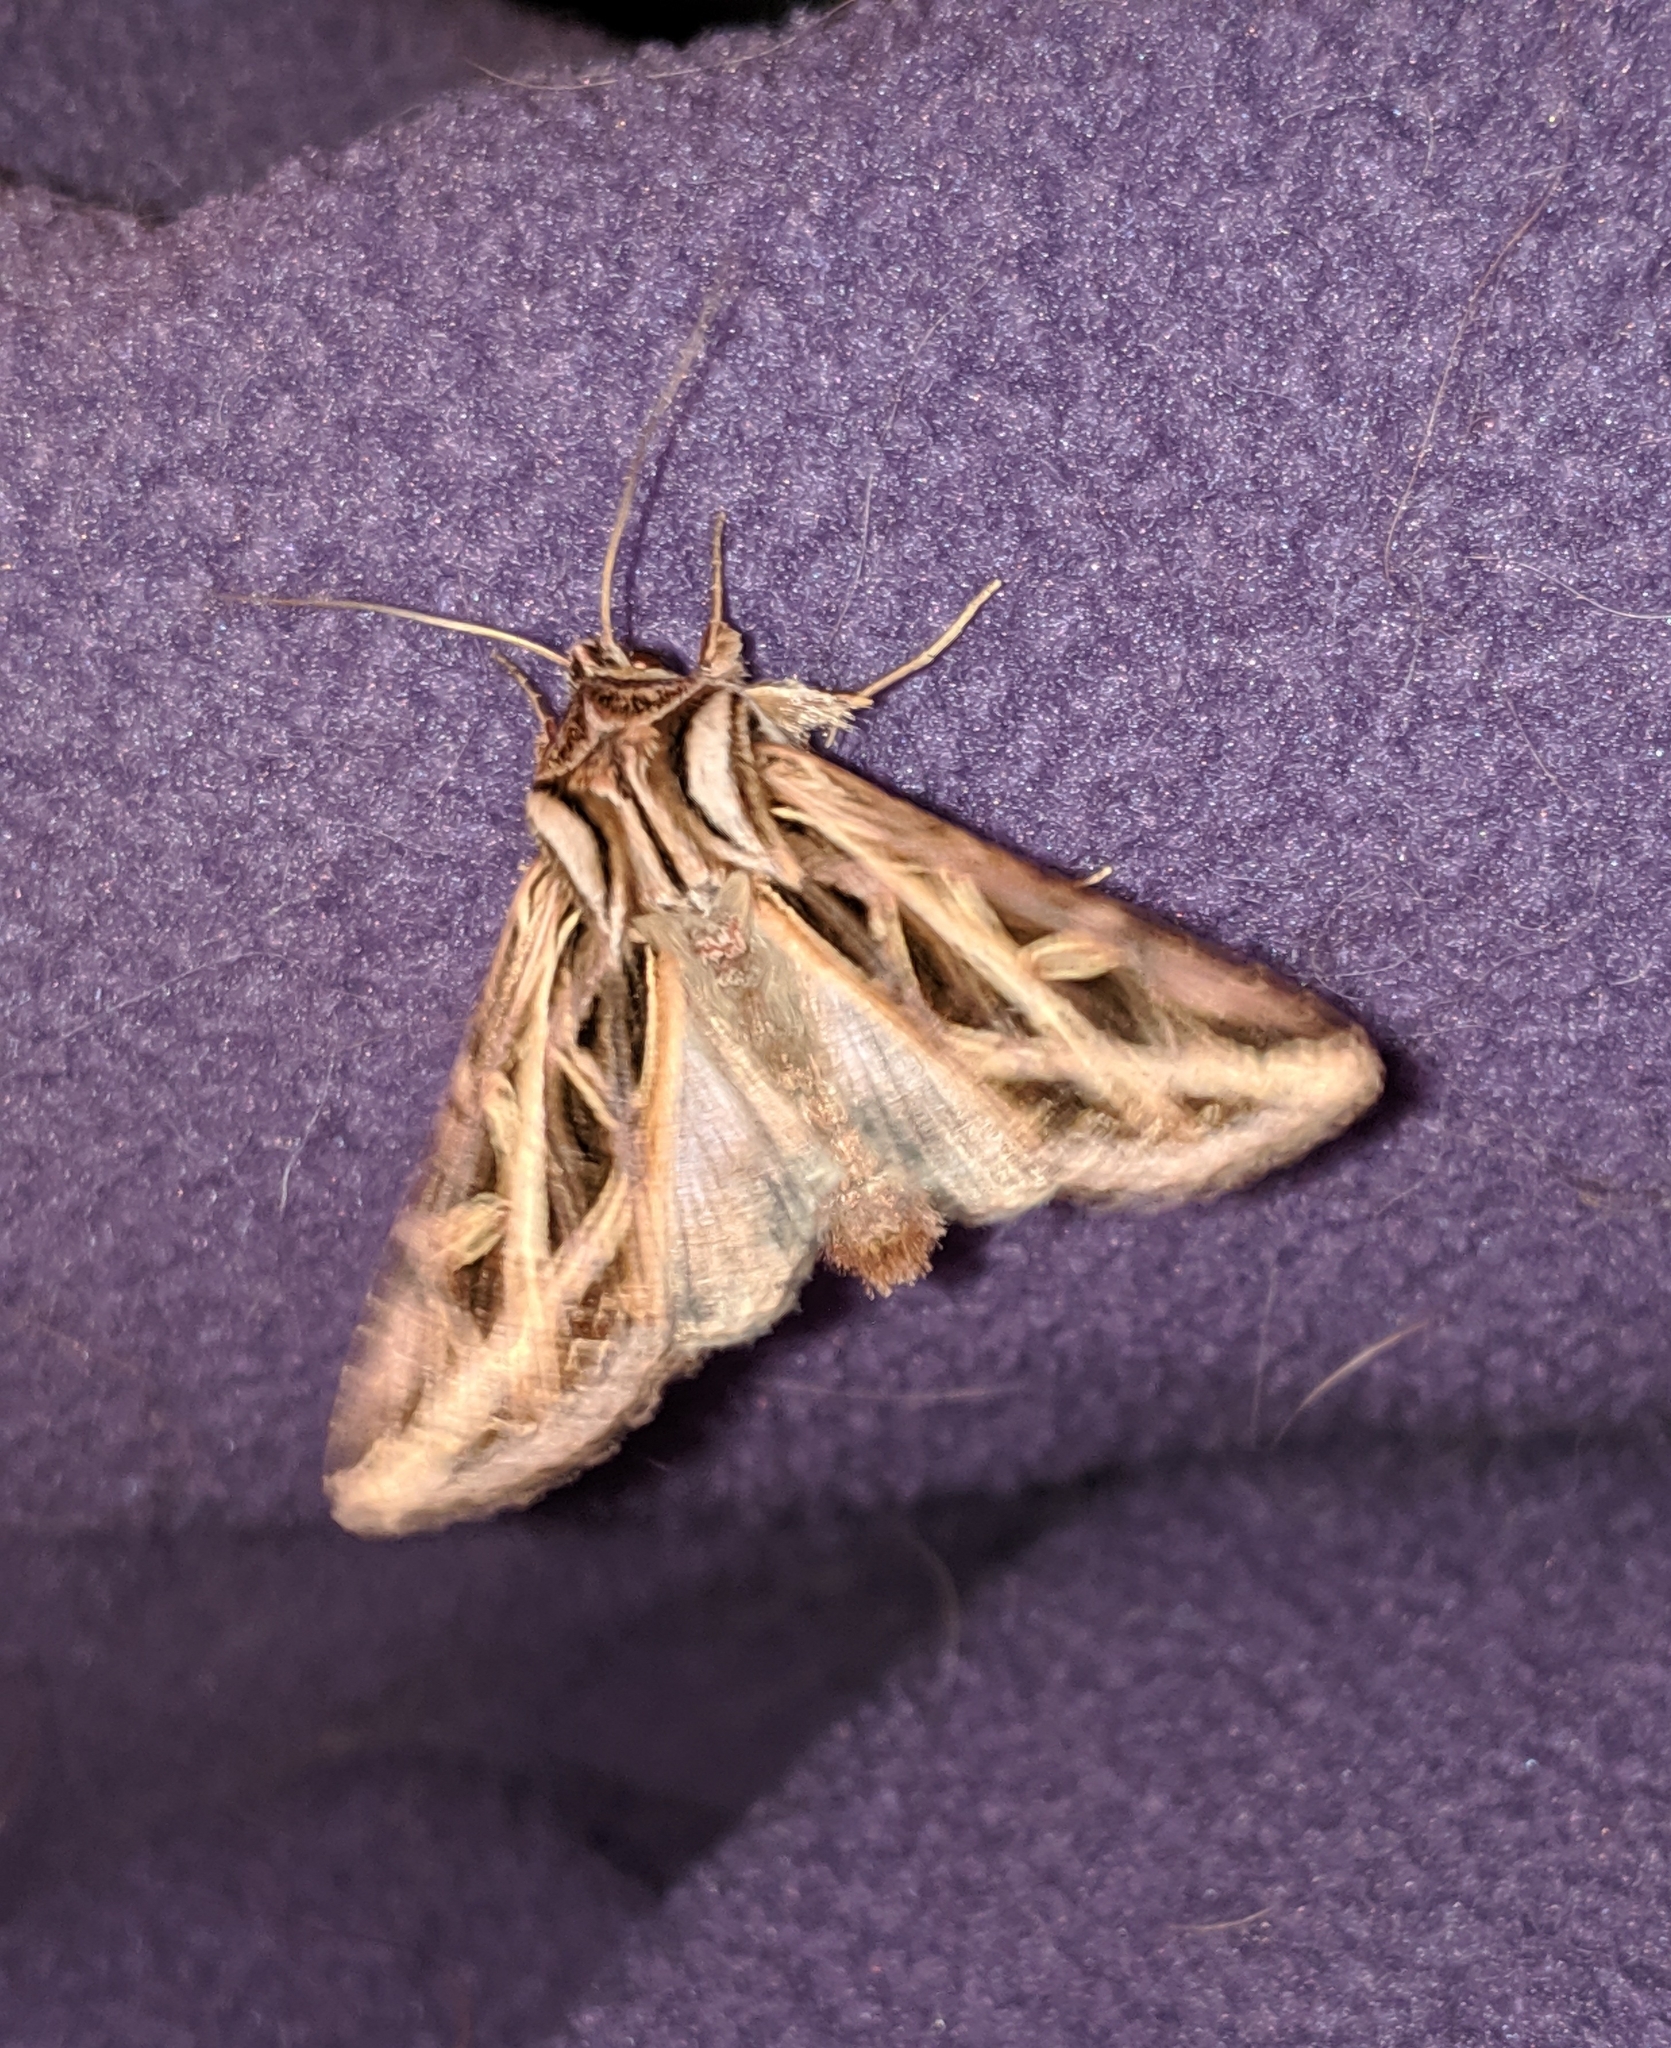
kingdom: Animalia
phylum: Arthropoda
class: Insecta
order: Lepidoptera
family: Noctuidae
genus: Dargida
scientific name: Dargida procinctus
